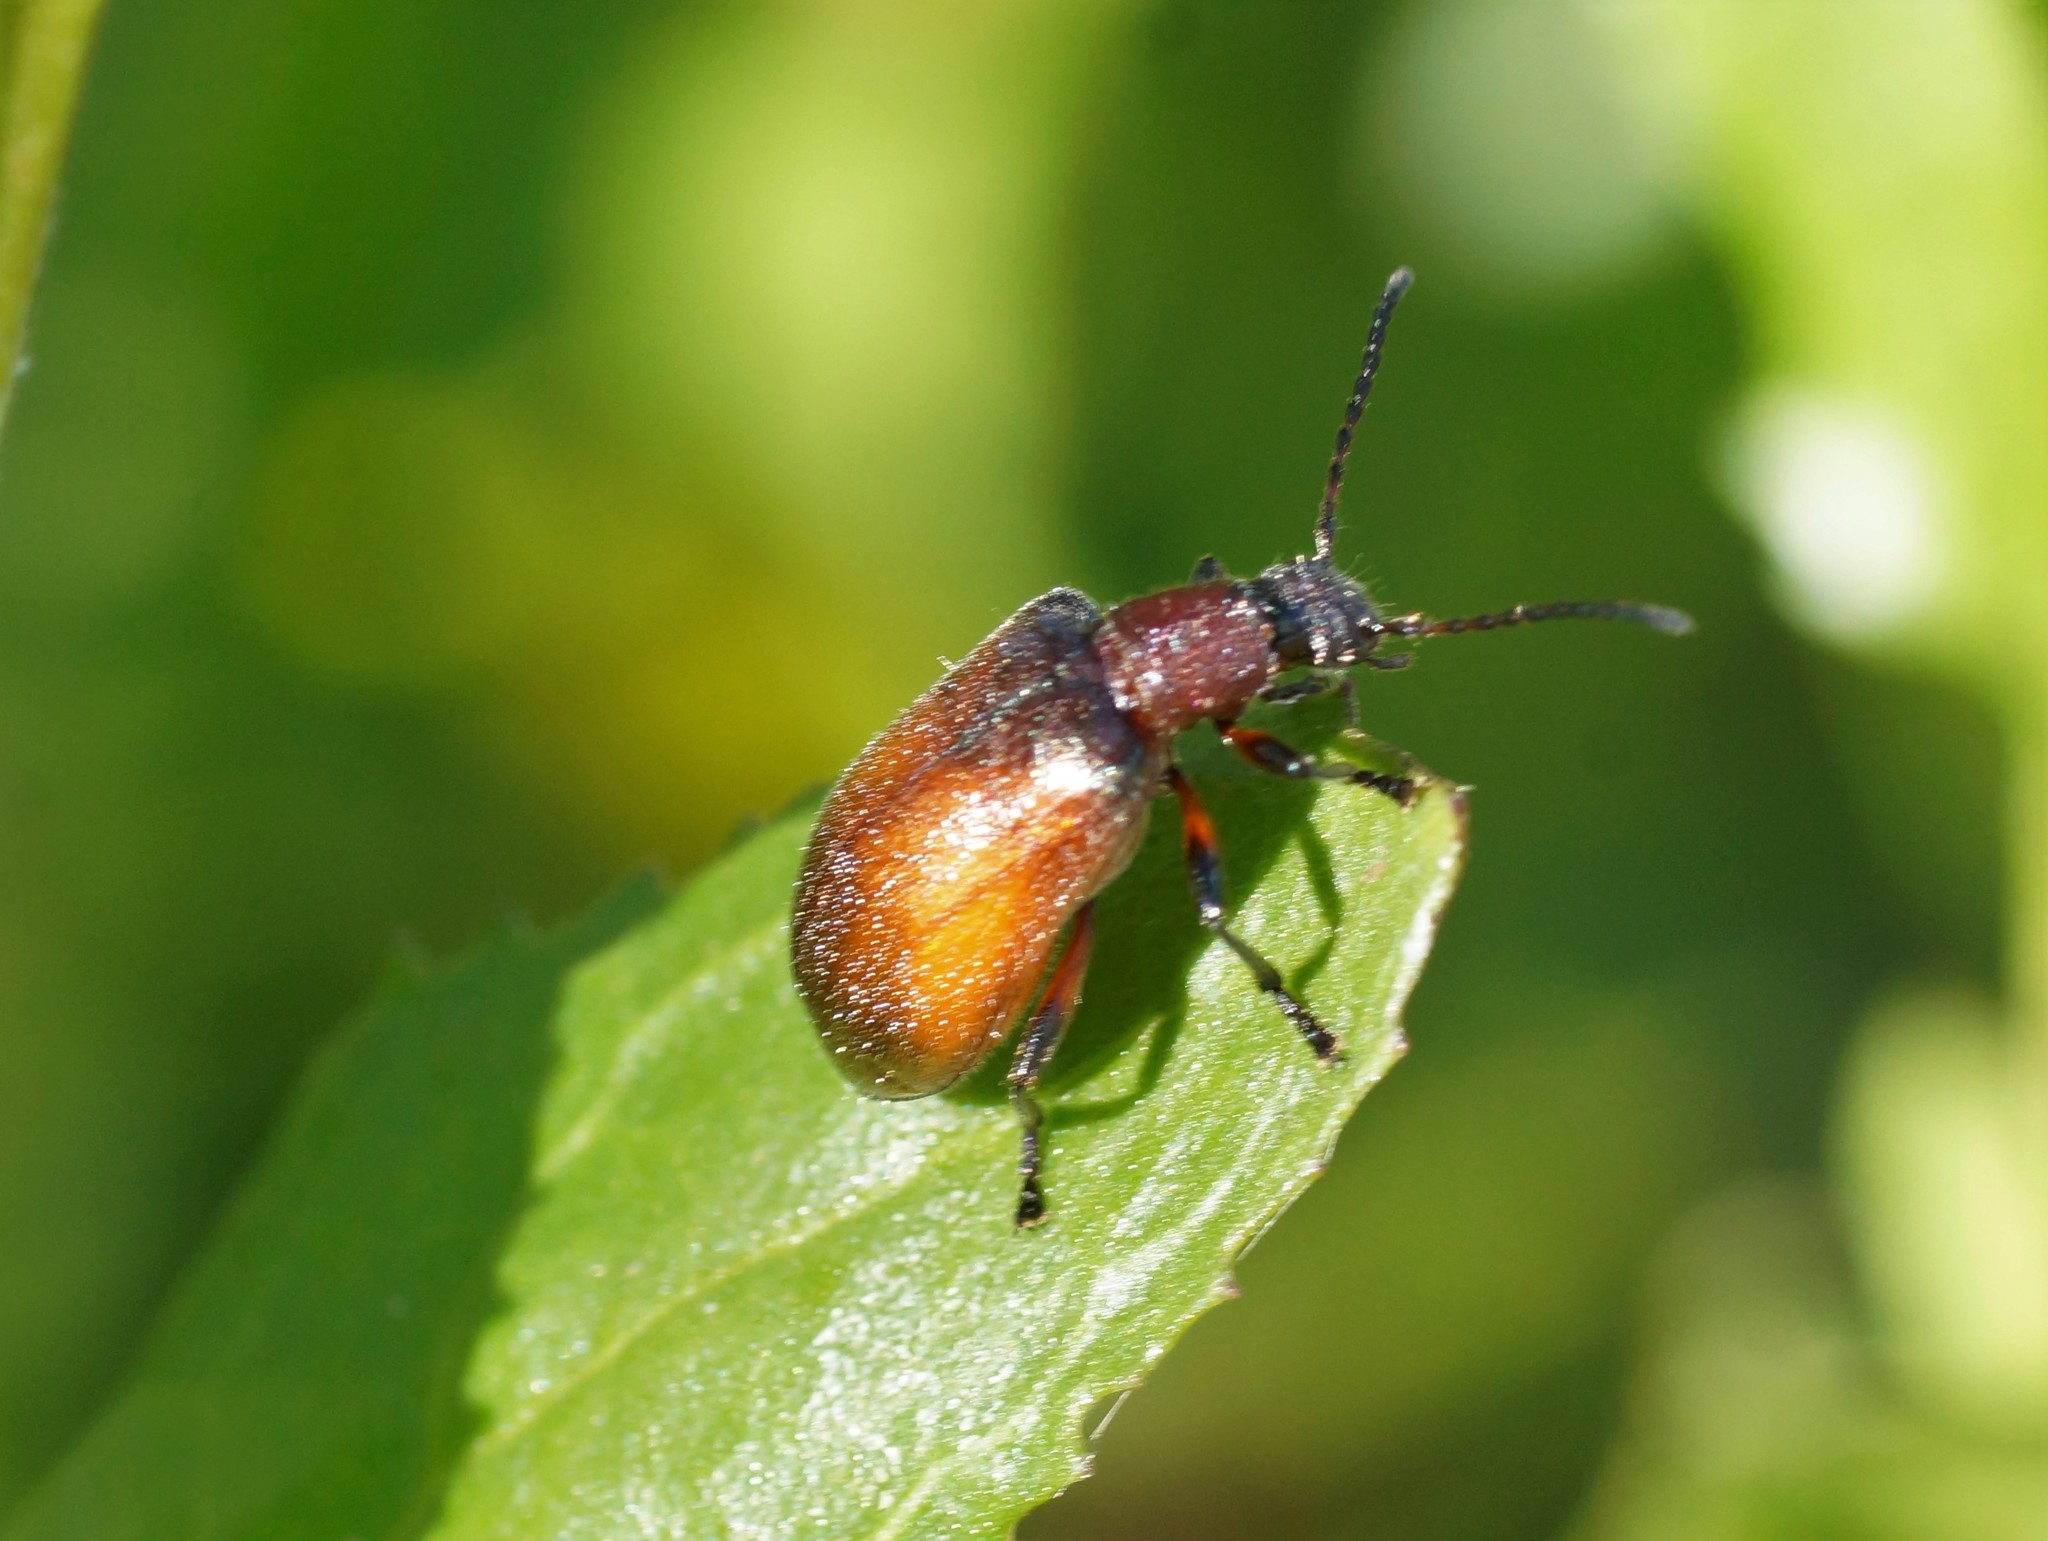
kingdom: Animalia
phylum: Arthropoda
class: Insecta
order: Coleoptera
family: Tenebrionidae
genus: Ecnolagria
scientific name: Ecnolagria
